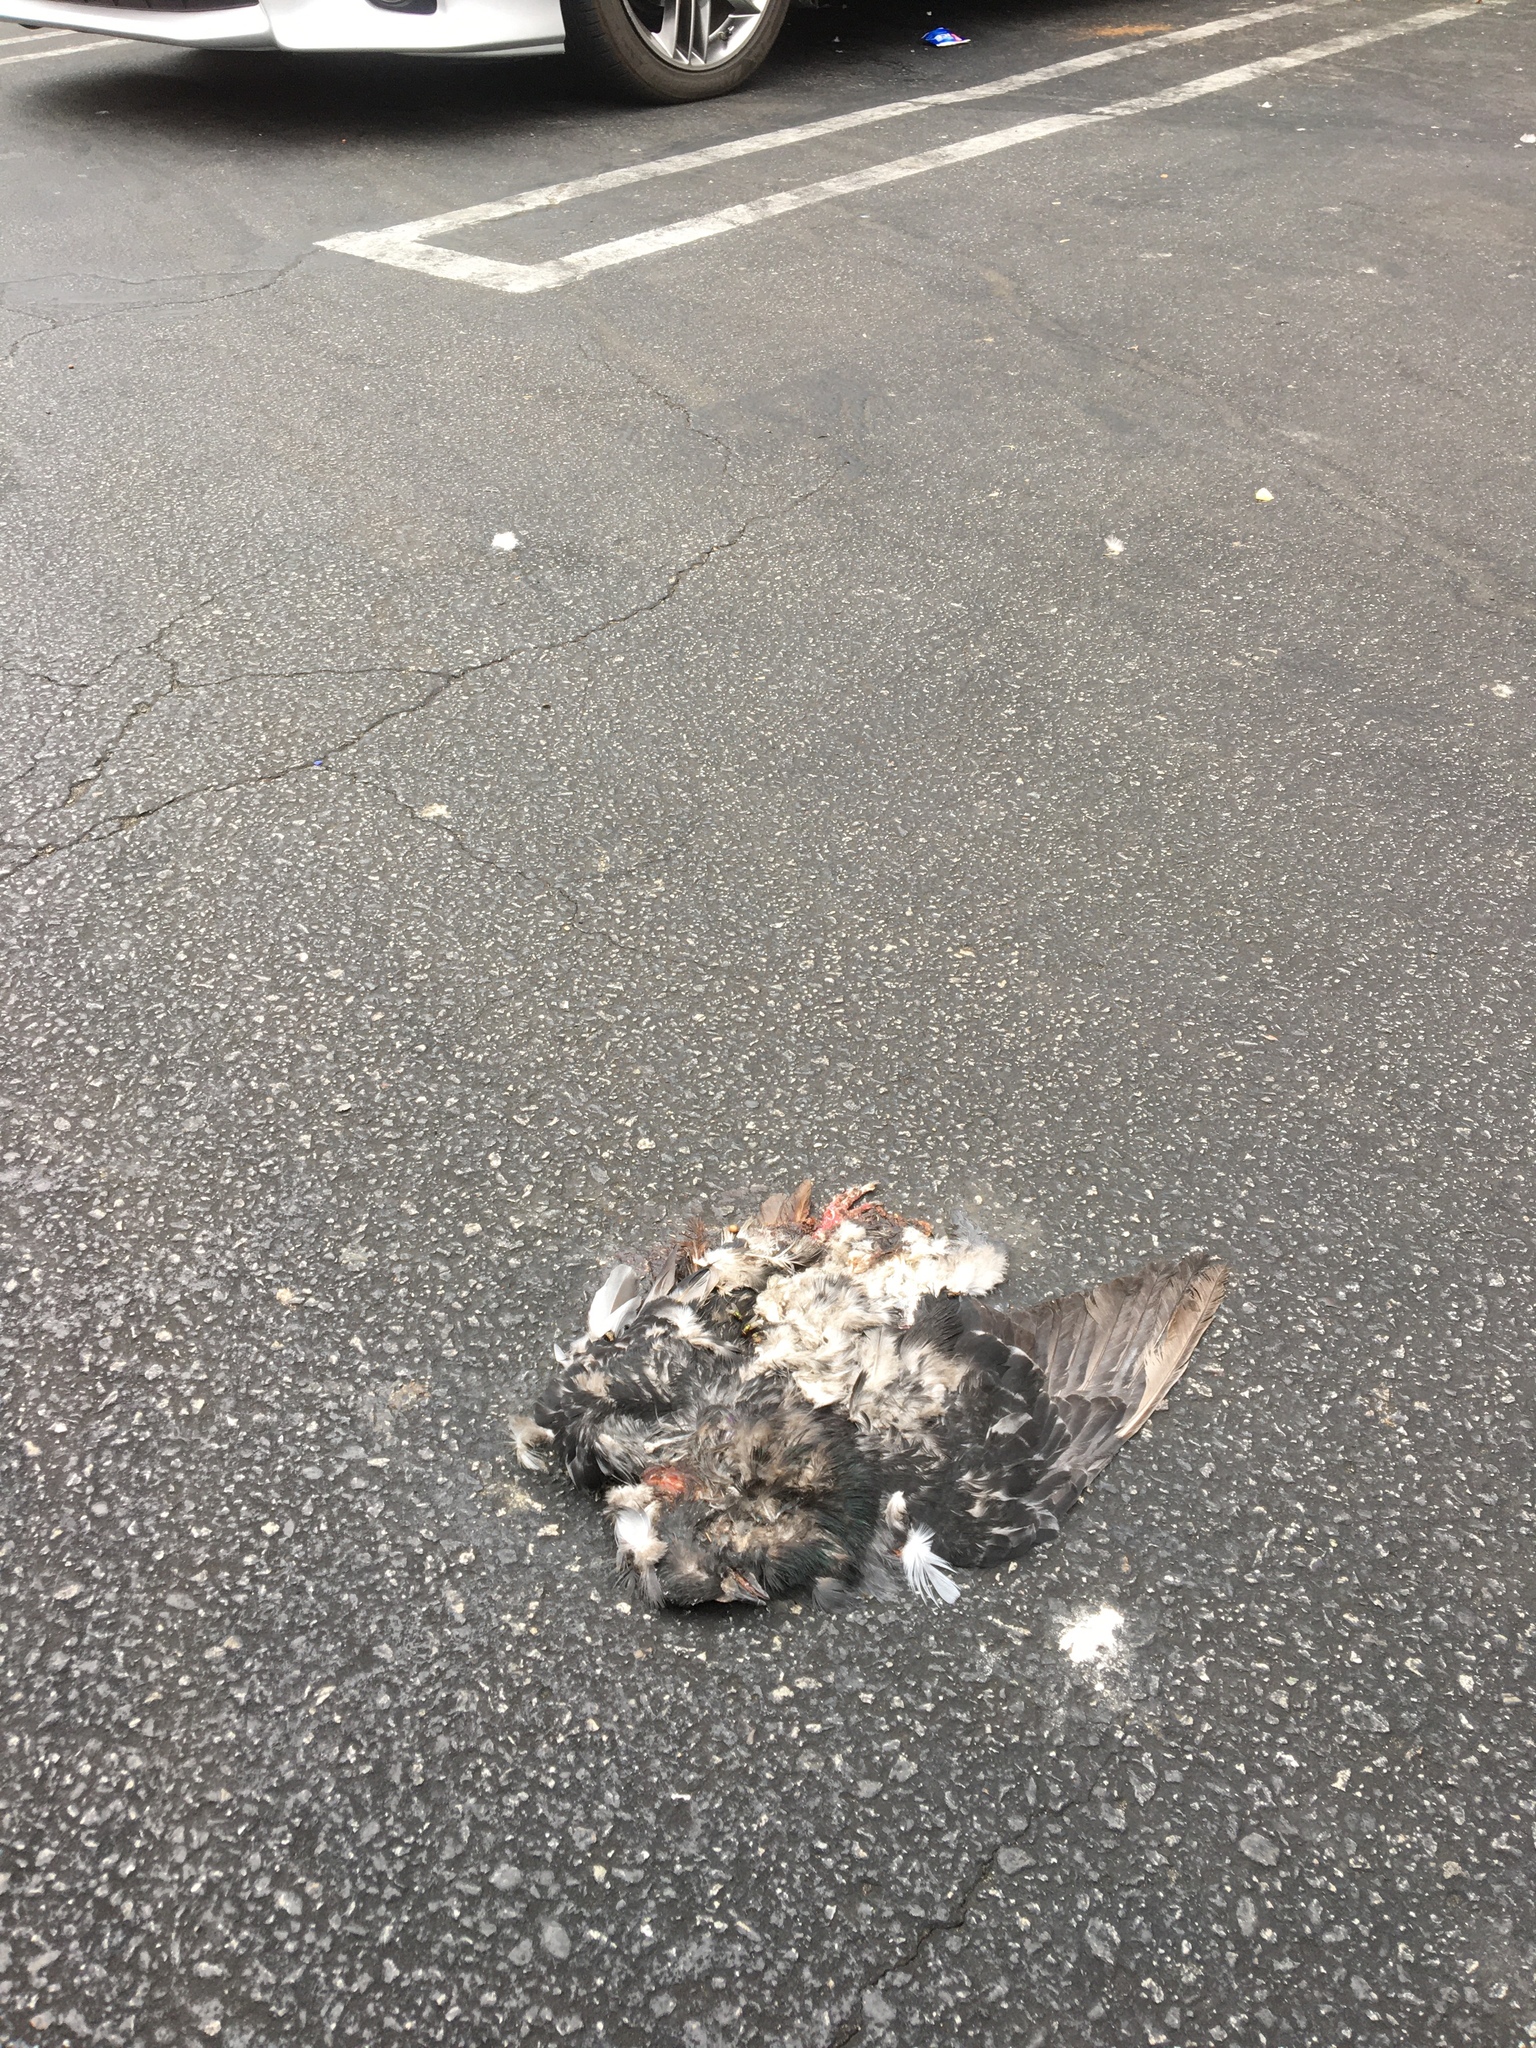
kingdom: Animalia
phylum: Chordata
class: Aves
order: Columbiformes
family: Columbidae
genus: Columba
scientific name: Columba livia
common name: Rock pigeon
